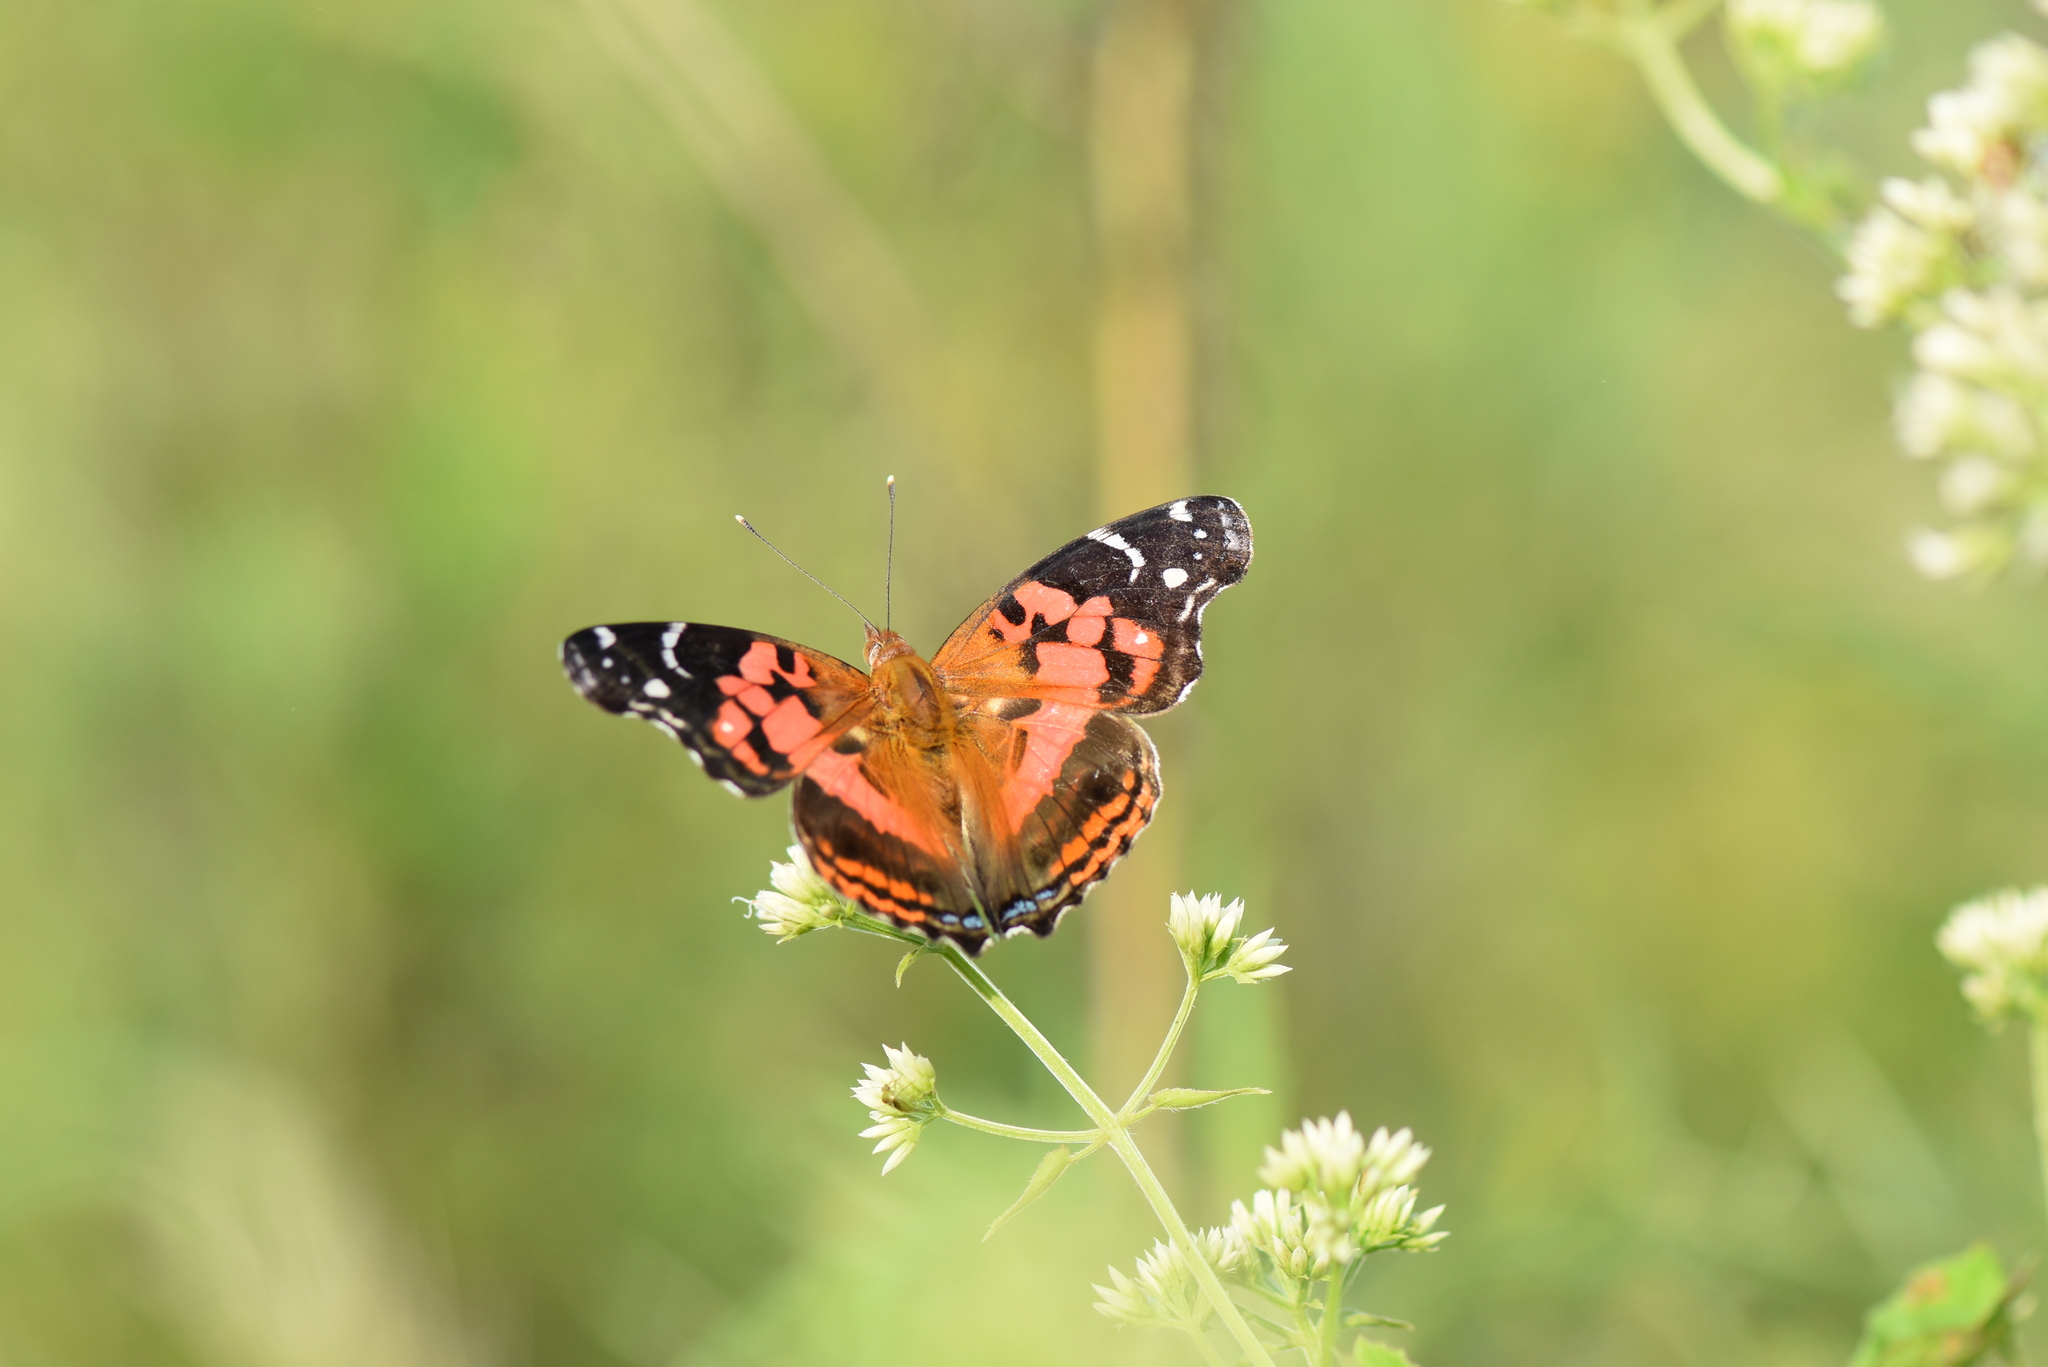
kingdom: Animalia
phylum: Arthropoda
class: Insecta
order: Lepidoptera
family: Nymphalidae
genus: Vanessa
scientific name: Vanessa myrinna
